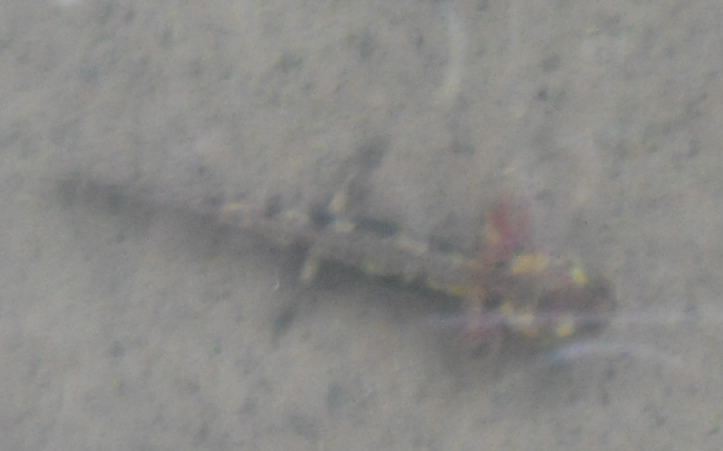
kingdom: Animalia
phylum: Chordata
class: Amphibia
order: Caudata
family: Salamandridae
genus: Salamandra
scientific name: Salamandra salamandra
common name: Fire salamander
